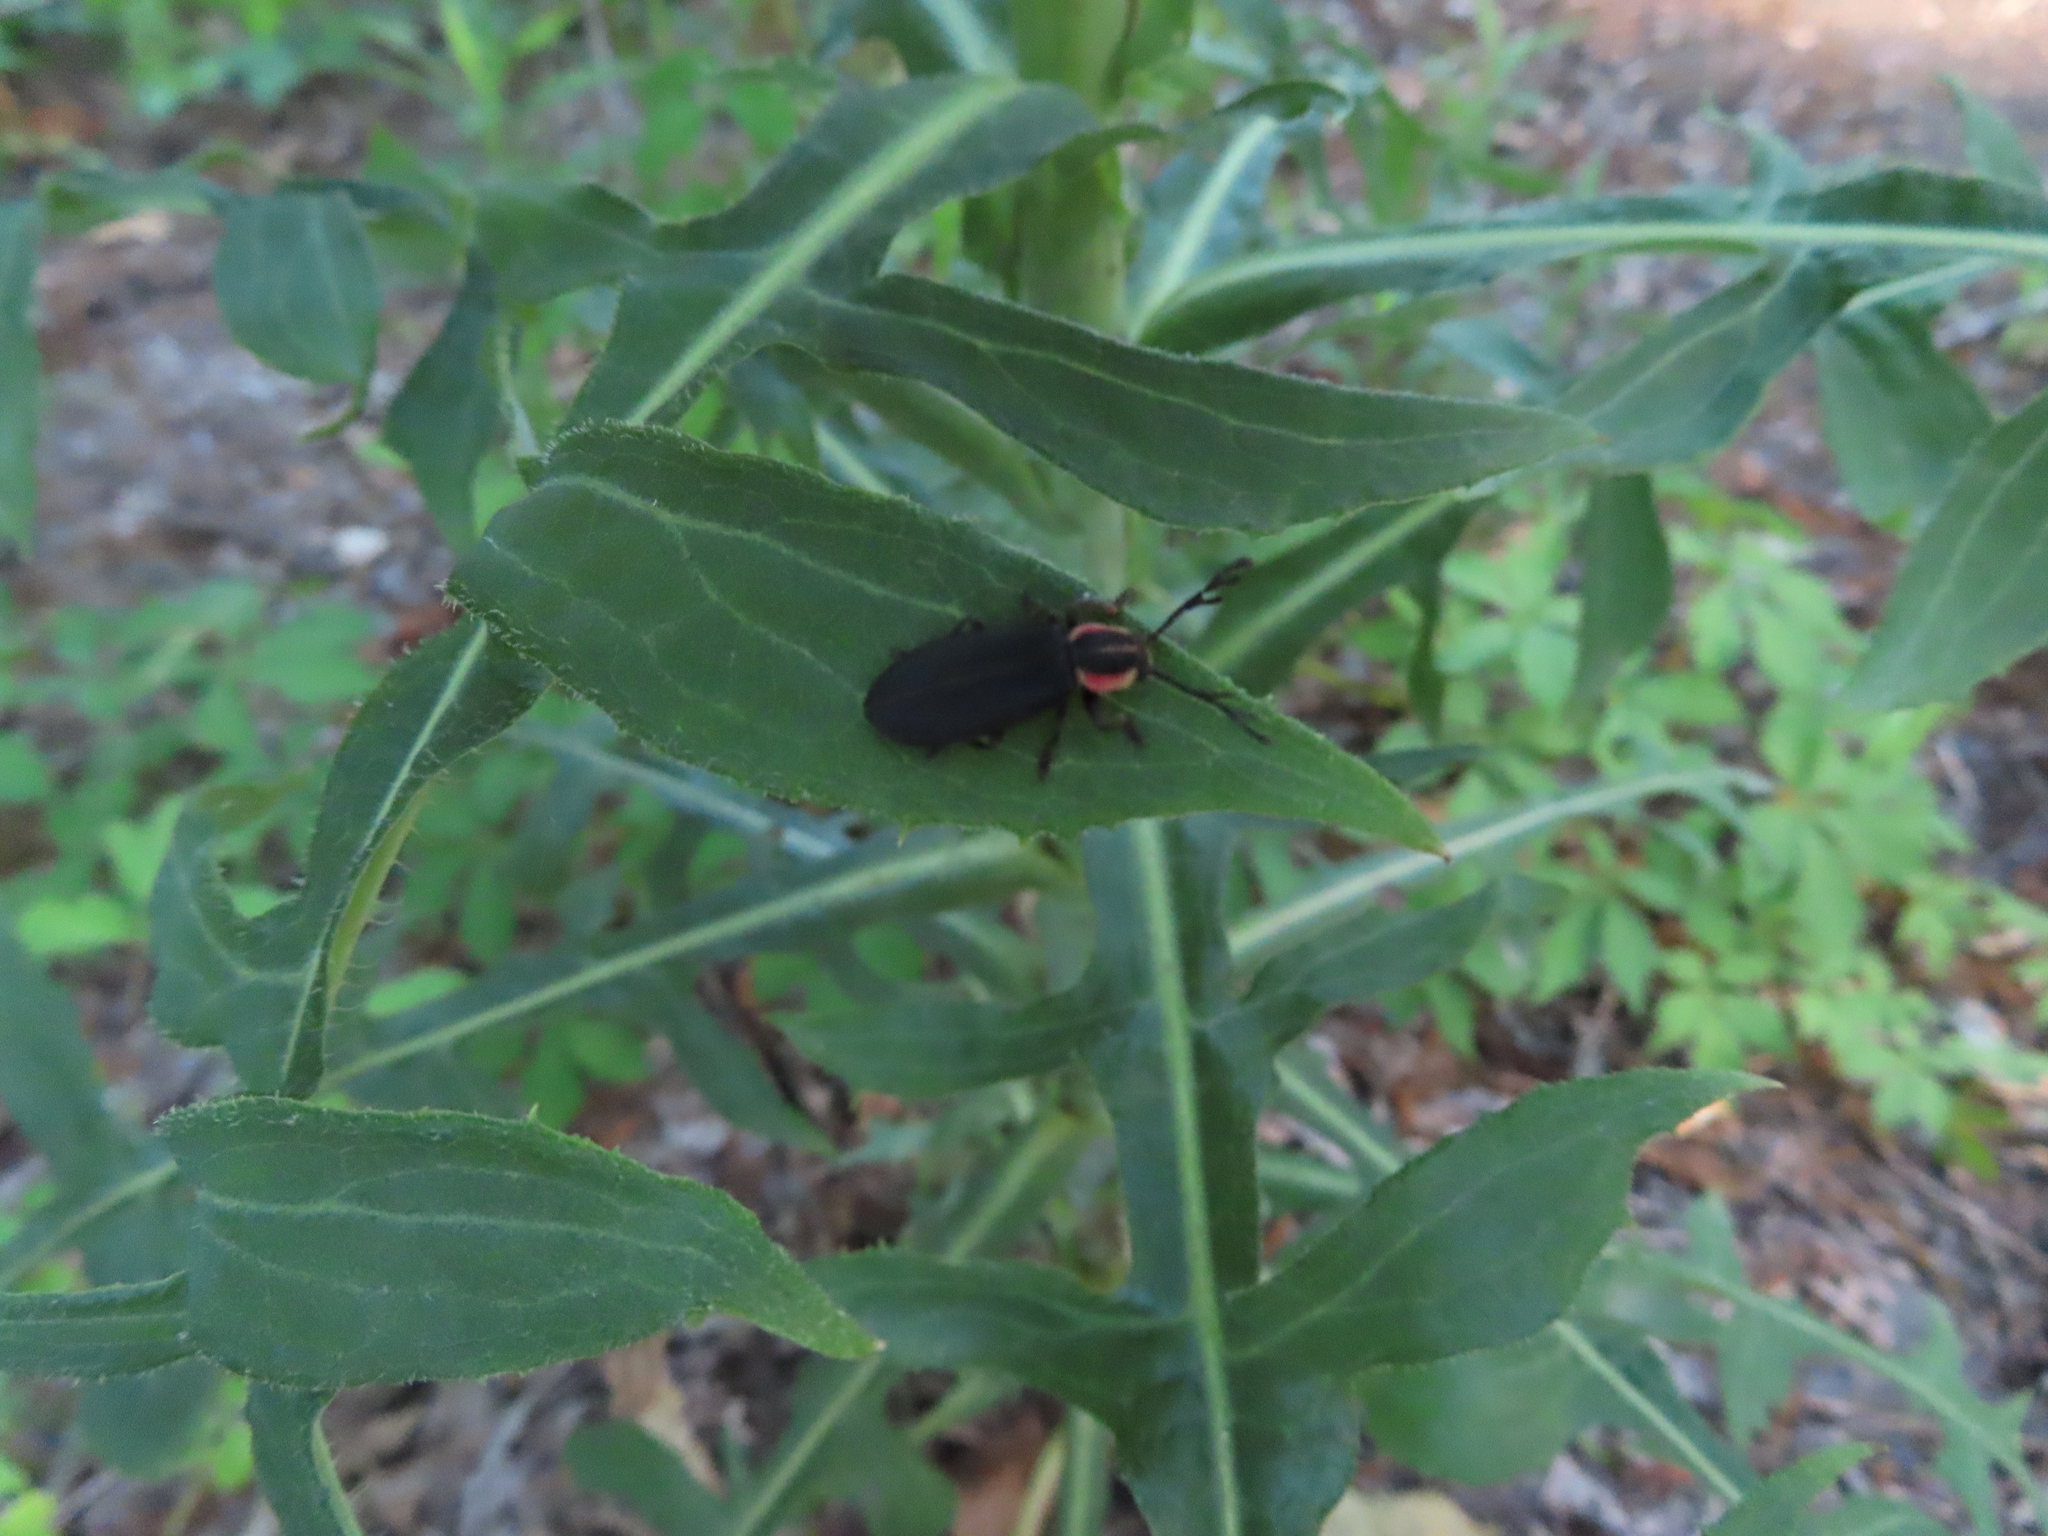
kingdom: Animalia
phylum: Arthropoda
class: Insecta
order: Coleoptera
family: Cleridae
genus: Chariessa
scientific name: Chariessa pilosa
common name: Pilose checkered beetle
